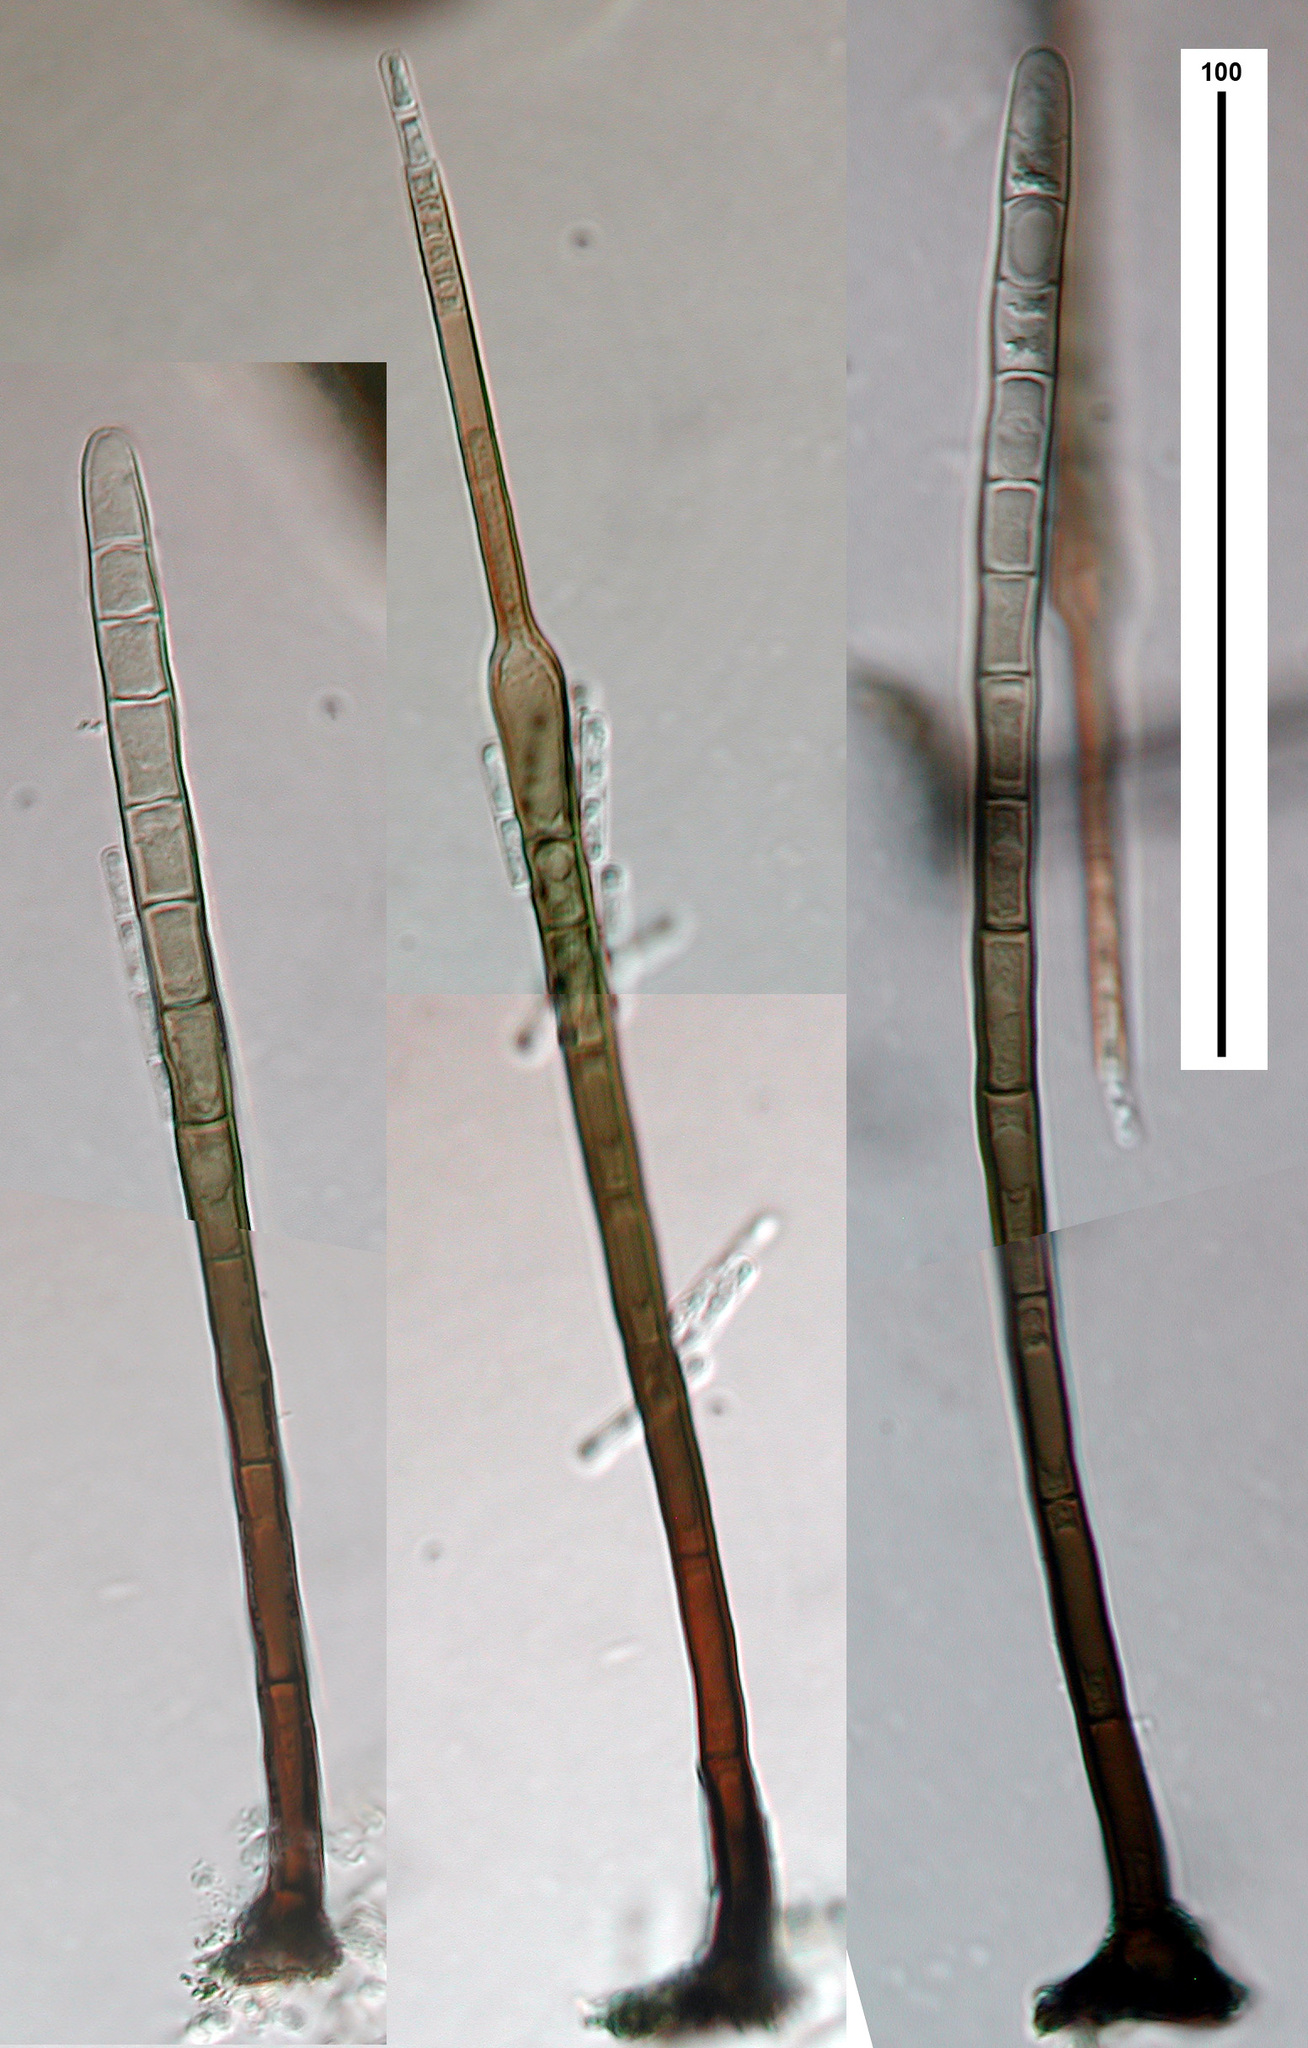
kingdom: Fungi
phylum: Ascomycota
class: Leotiomycetes
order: Helotiales
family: Pezizellaceae
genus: Cylindrocephalum
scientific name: Cylindrocephalum
